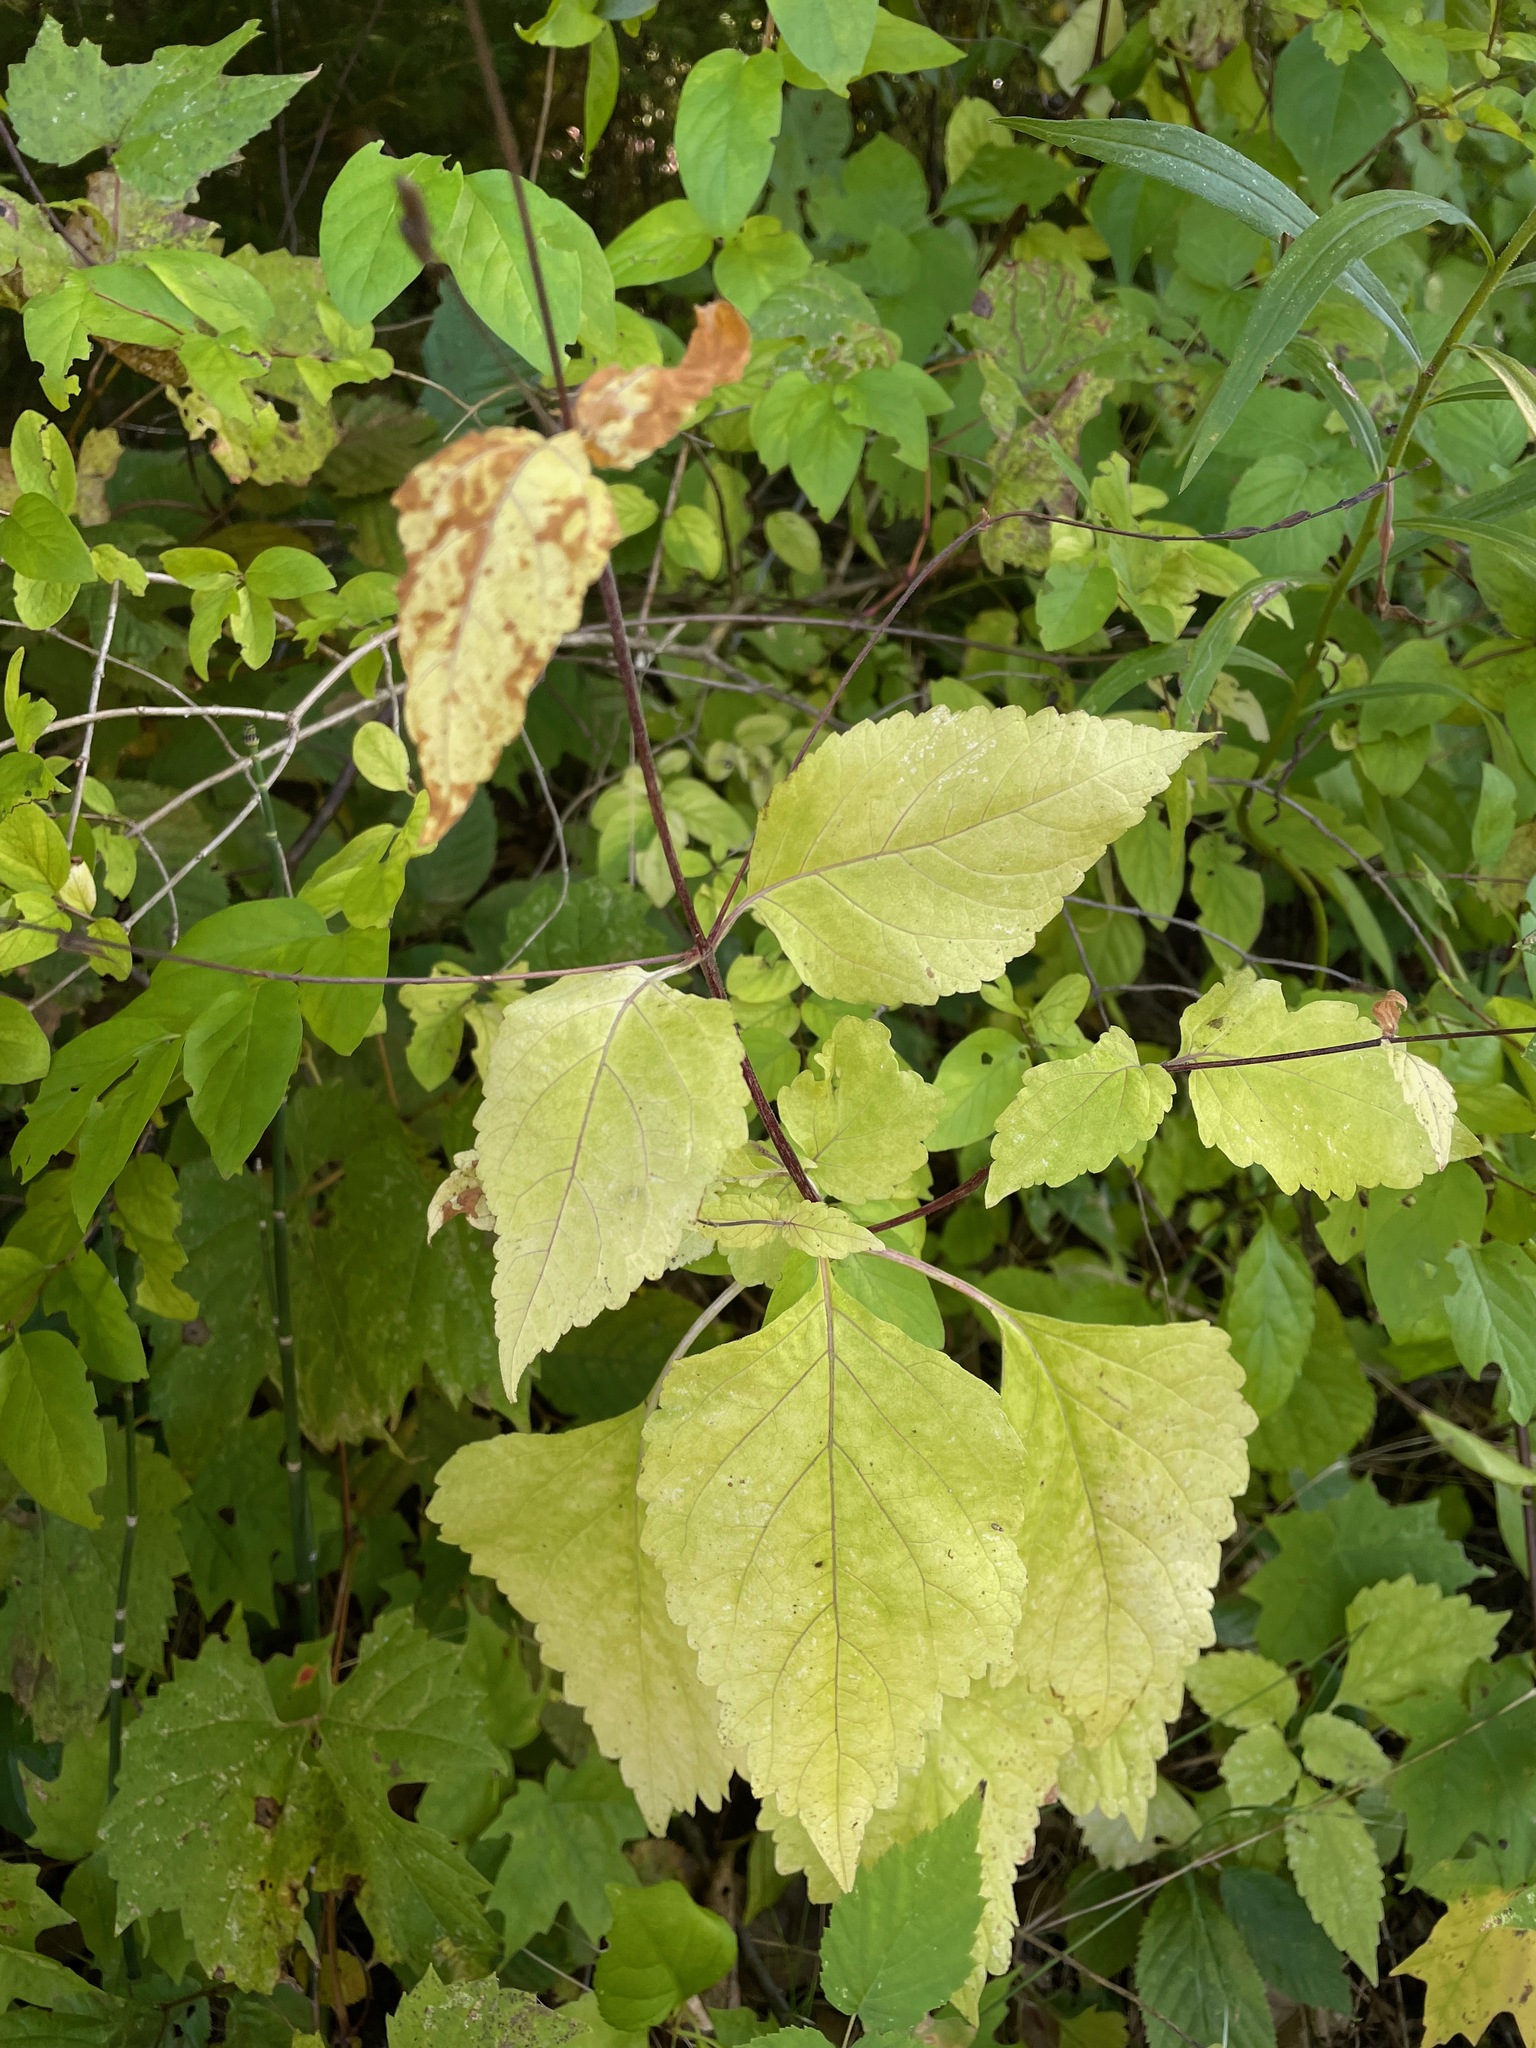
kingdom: Plantae
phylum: Tracheophyta
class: Magnoliopsida
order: Lamiales
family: Phrymaceae
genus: Phryma
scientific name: Phryma leptostachya
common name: American lopseed
